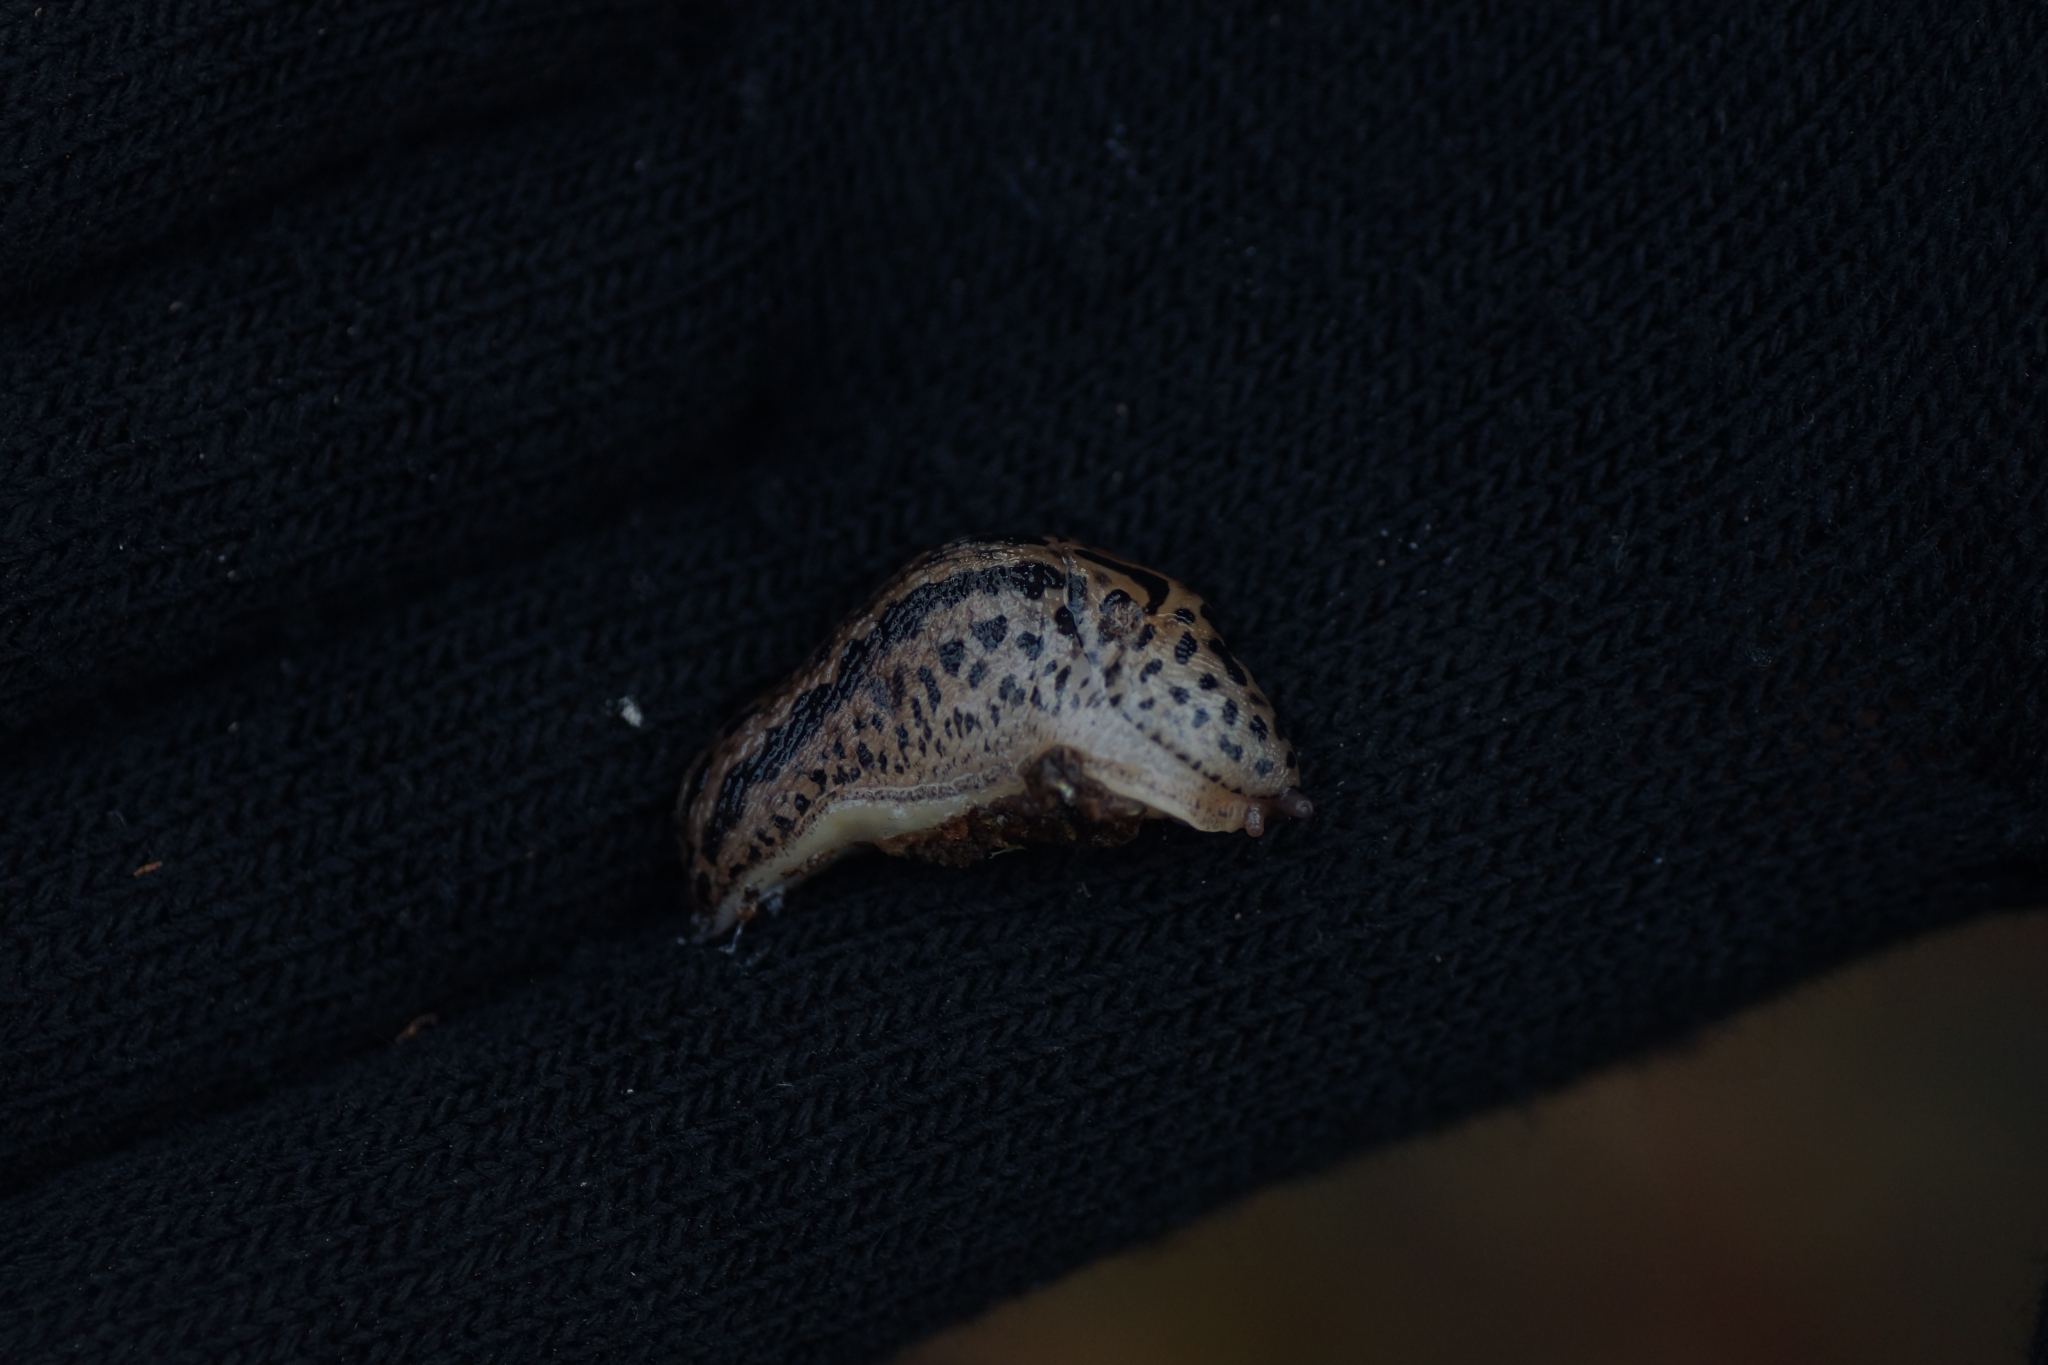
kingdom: Animalia
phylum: Mollusca
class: Gastropoda
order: Stylommatophora
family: Limacidae
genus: Limax
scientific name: Limax maximus
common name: Great grey slug
